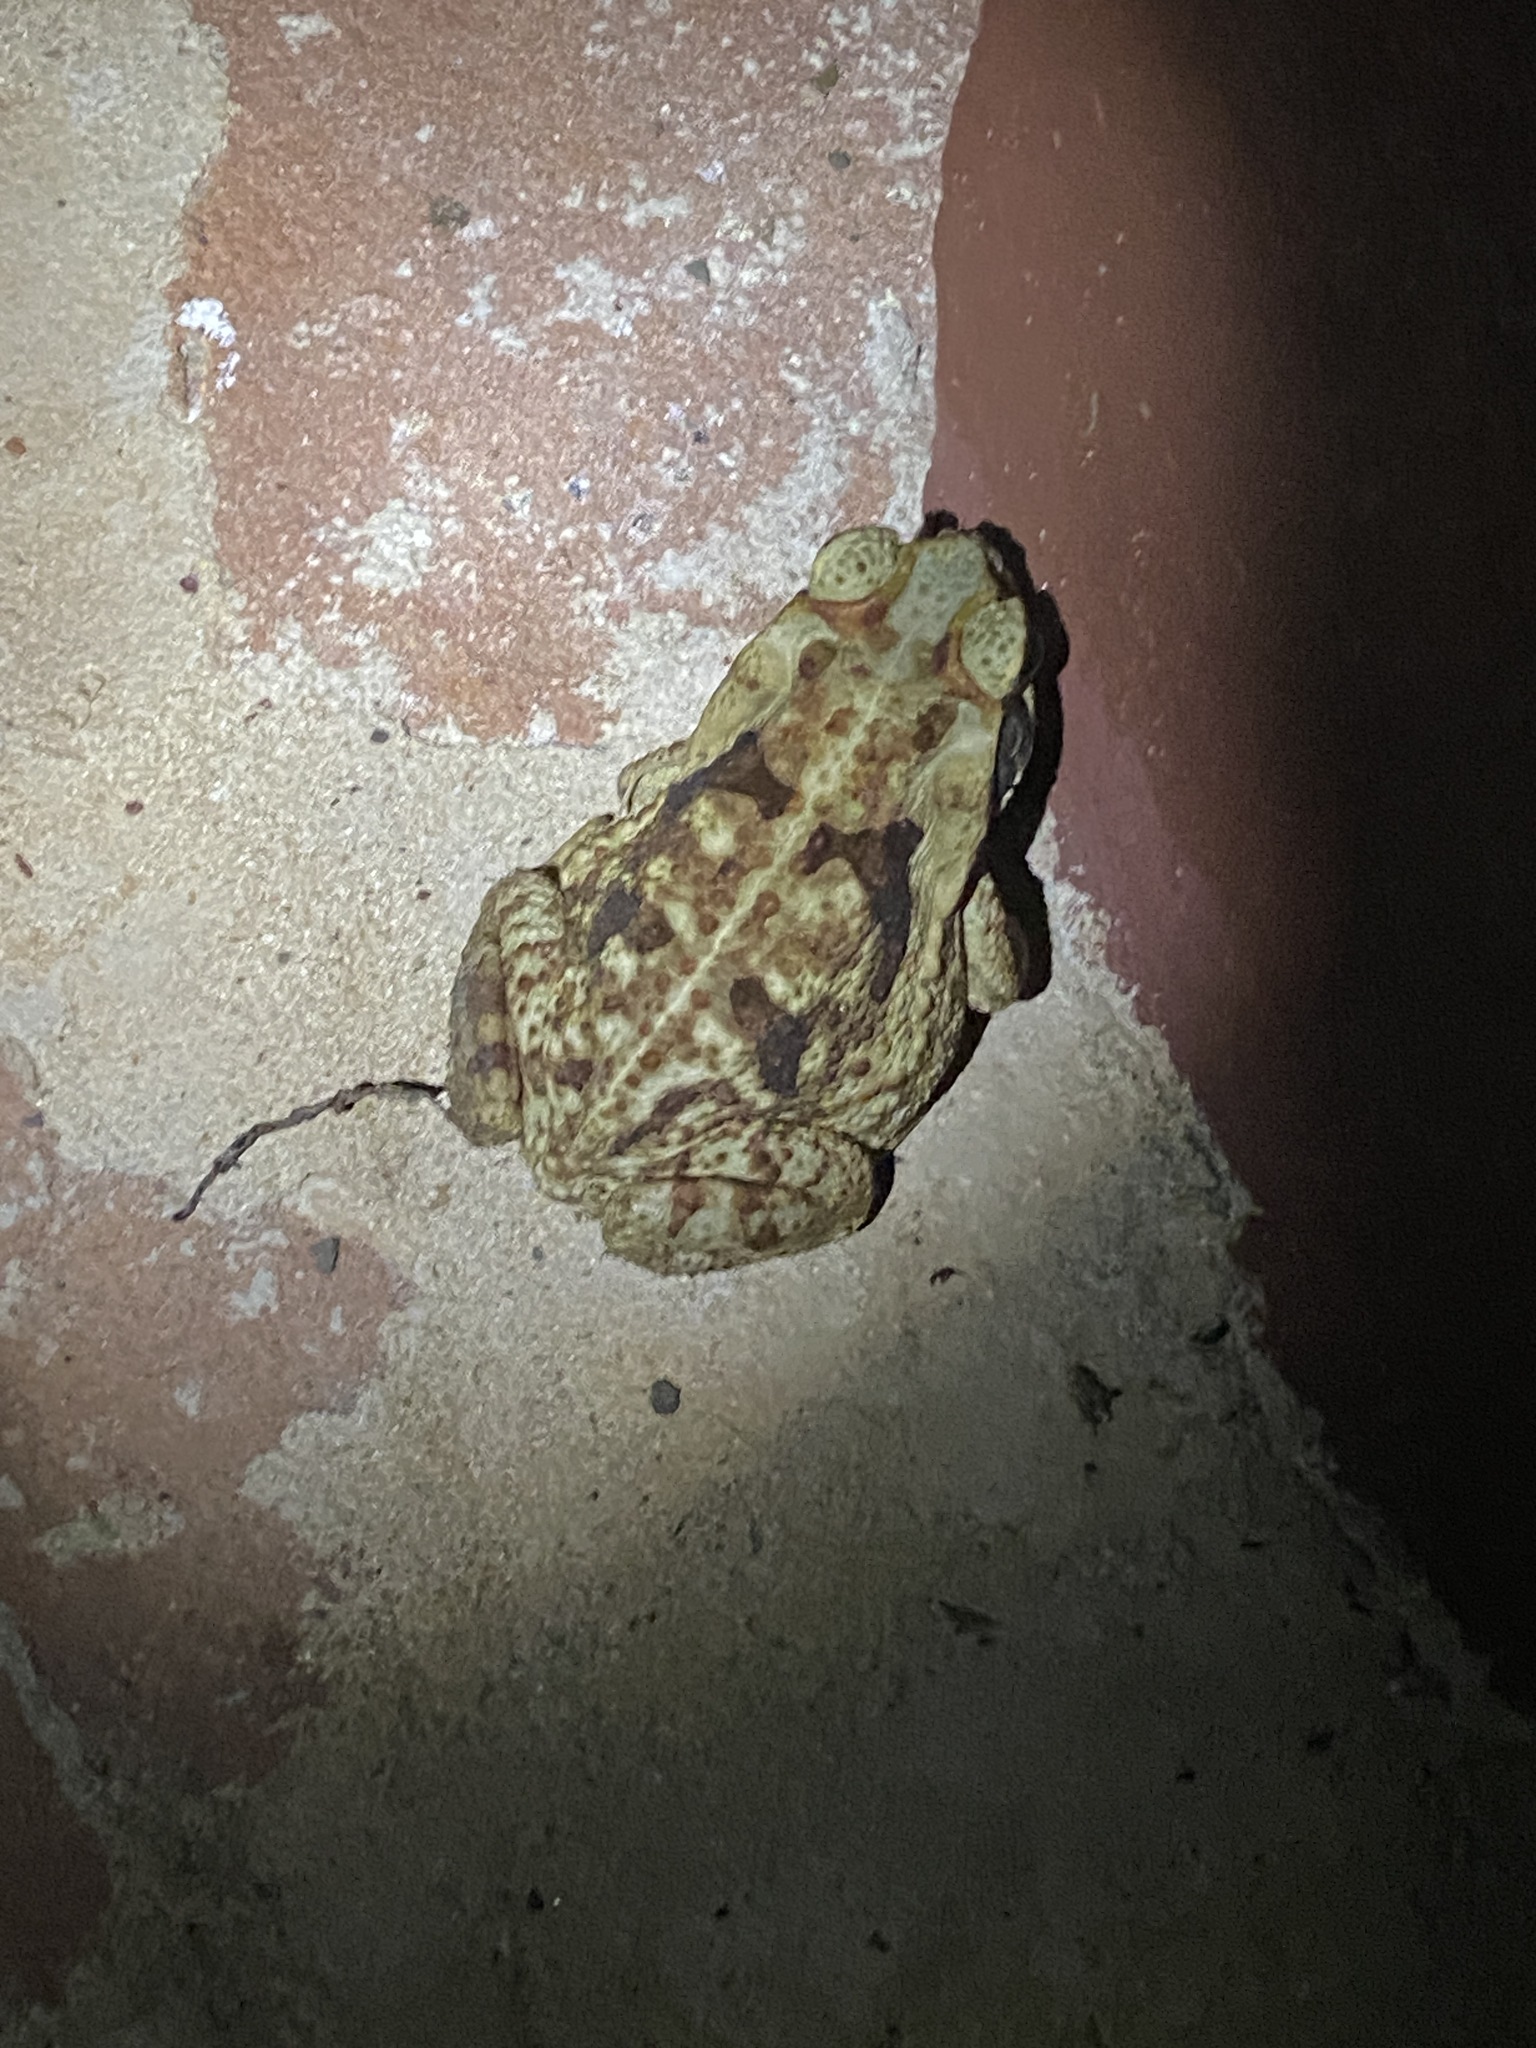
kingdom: Animalia
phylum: Chordata
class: Amphibia
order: Anura
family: Bufonidae
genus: Rhinella
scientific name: Rhinella diptycha
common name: Cope's toad
